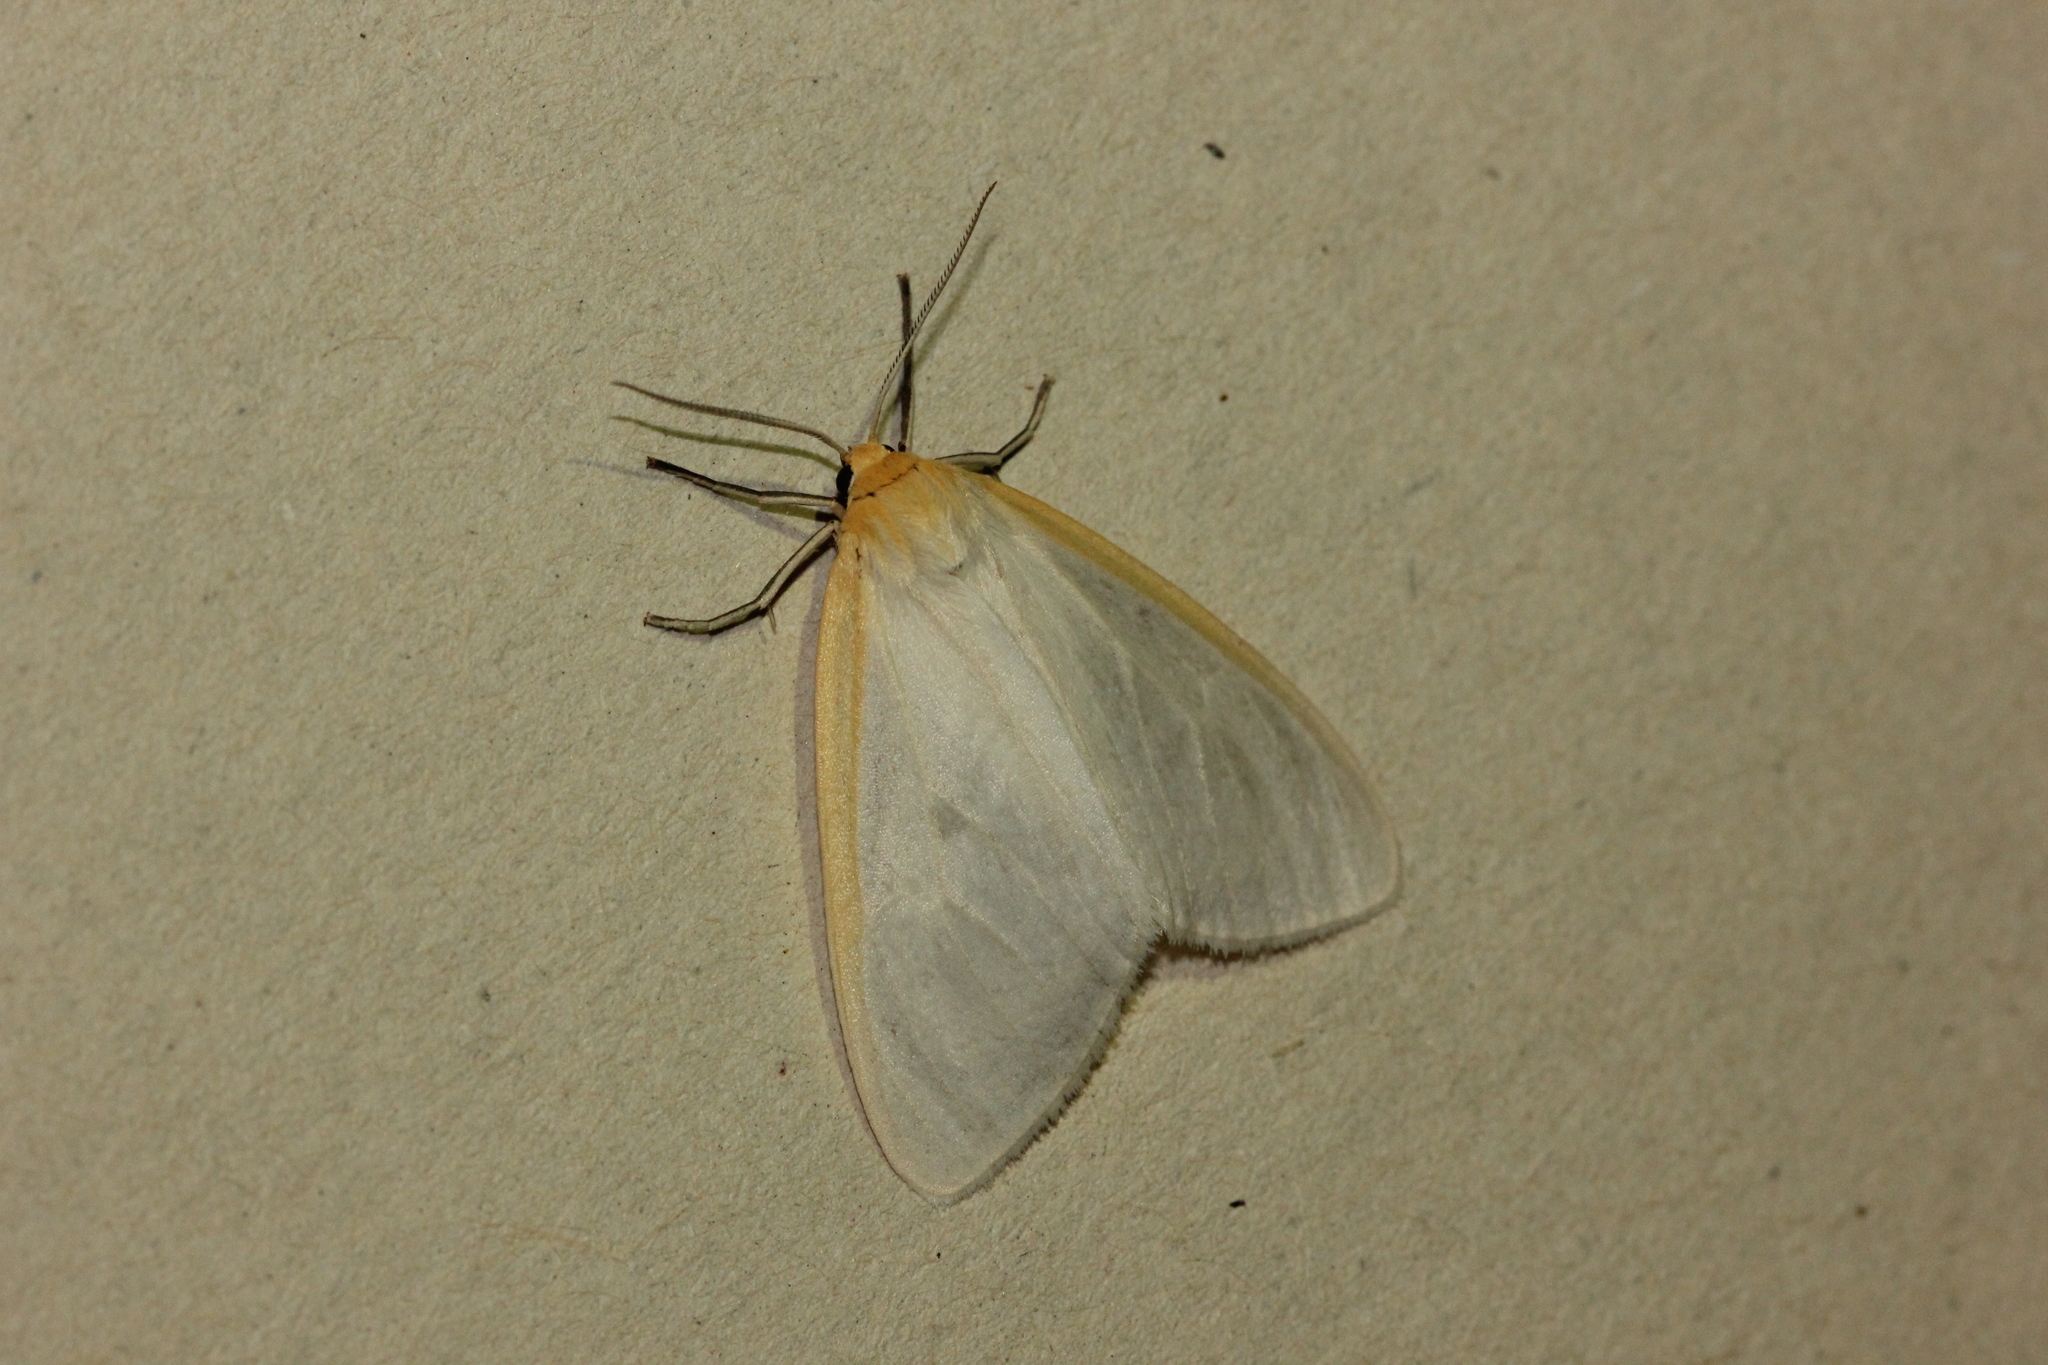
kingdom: Animalia
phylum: Arthropoda
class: Insecta
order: Lepidoptera
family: Erebidae
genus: Cycnia
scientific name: Cycnia tenera
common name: Delicate cycnia moth
